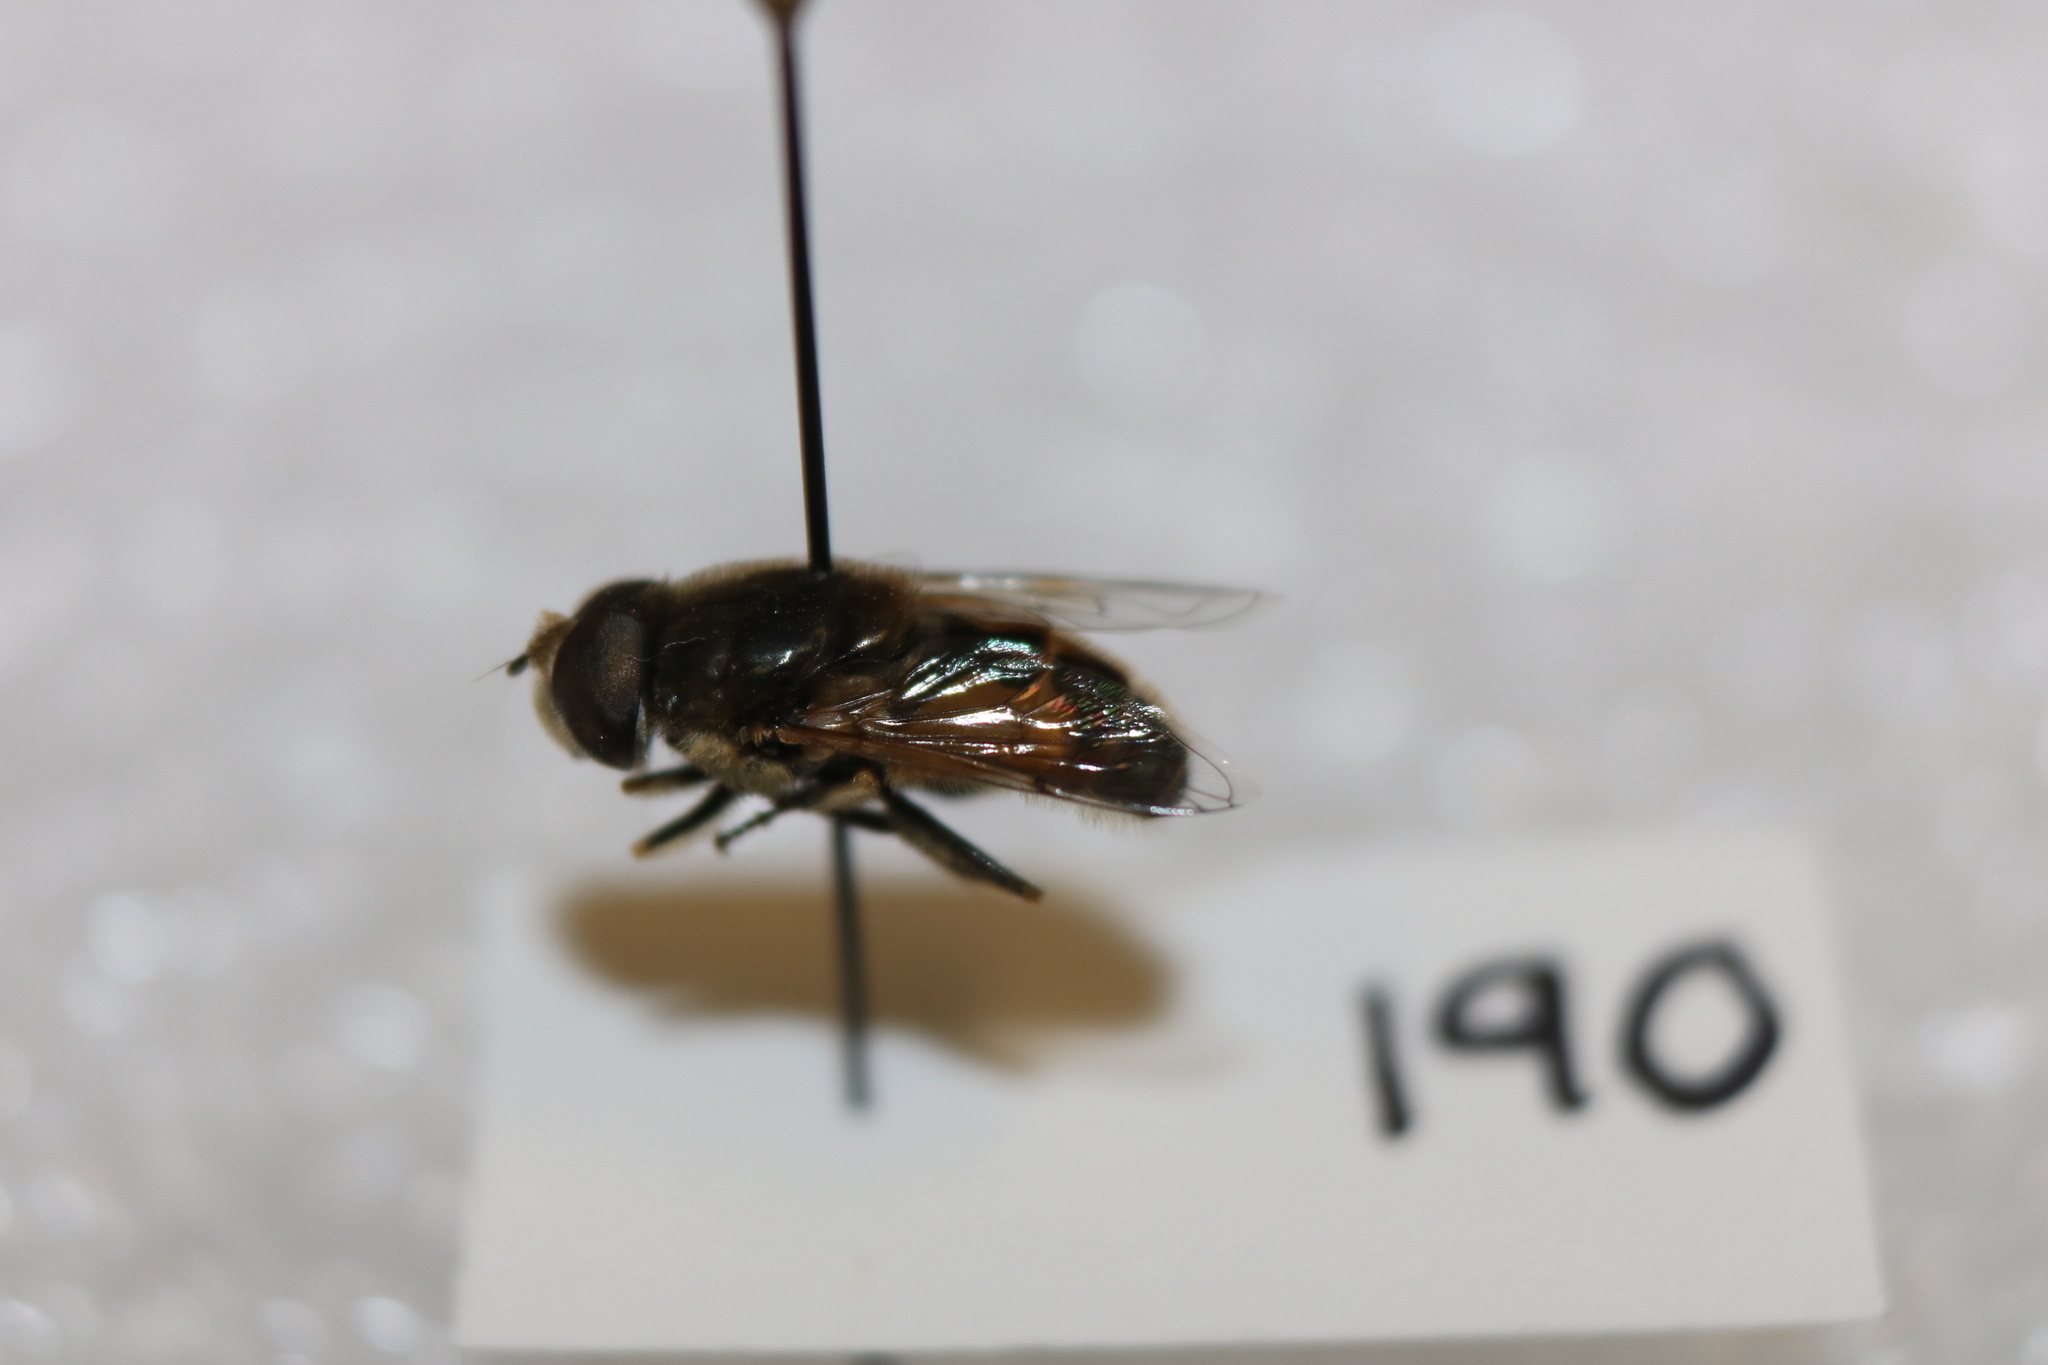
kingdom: Animalia
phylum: Arthropoda
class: Insecta
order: Diptera
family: Syrphidae
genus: Eristalis
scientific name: Eristalis arbustorum
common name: Hover fly
